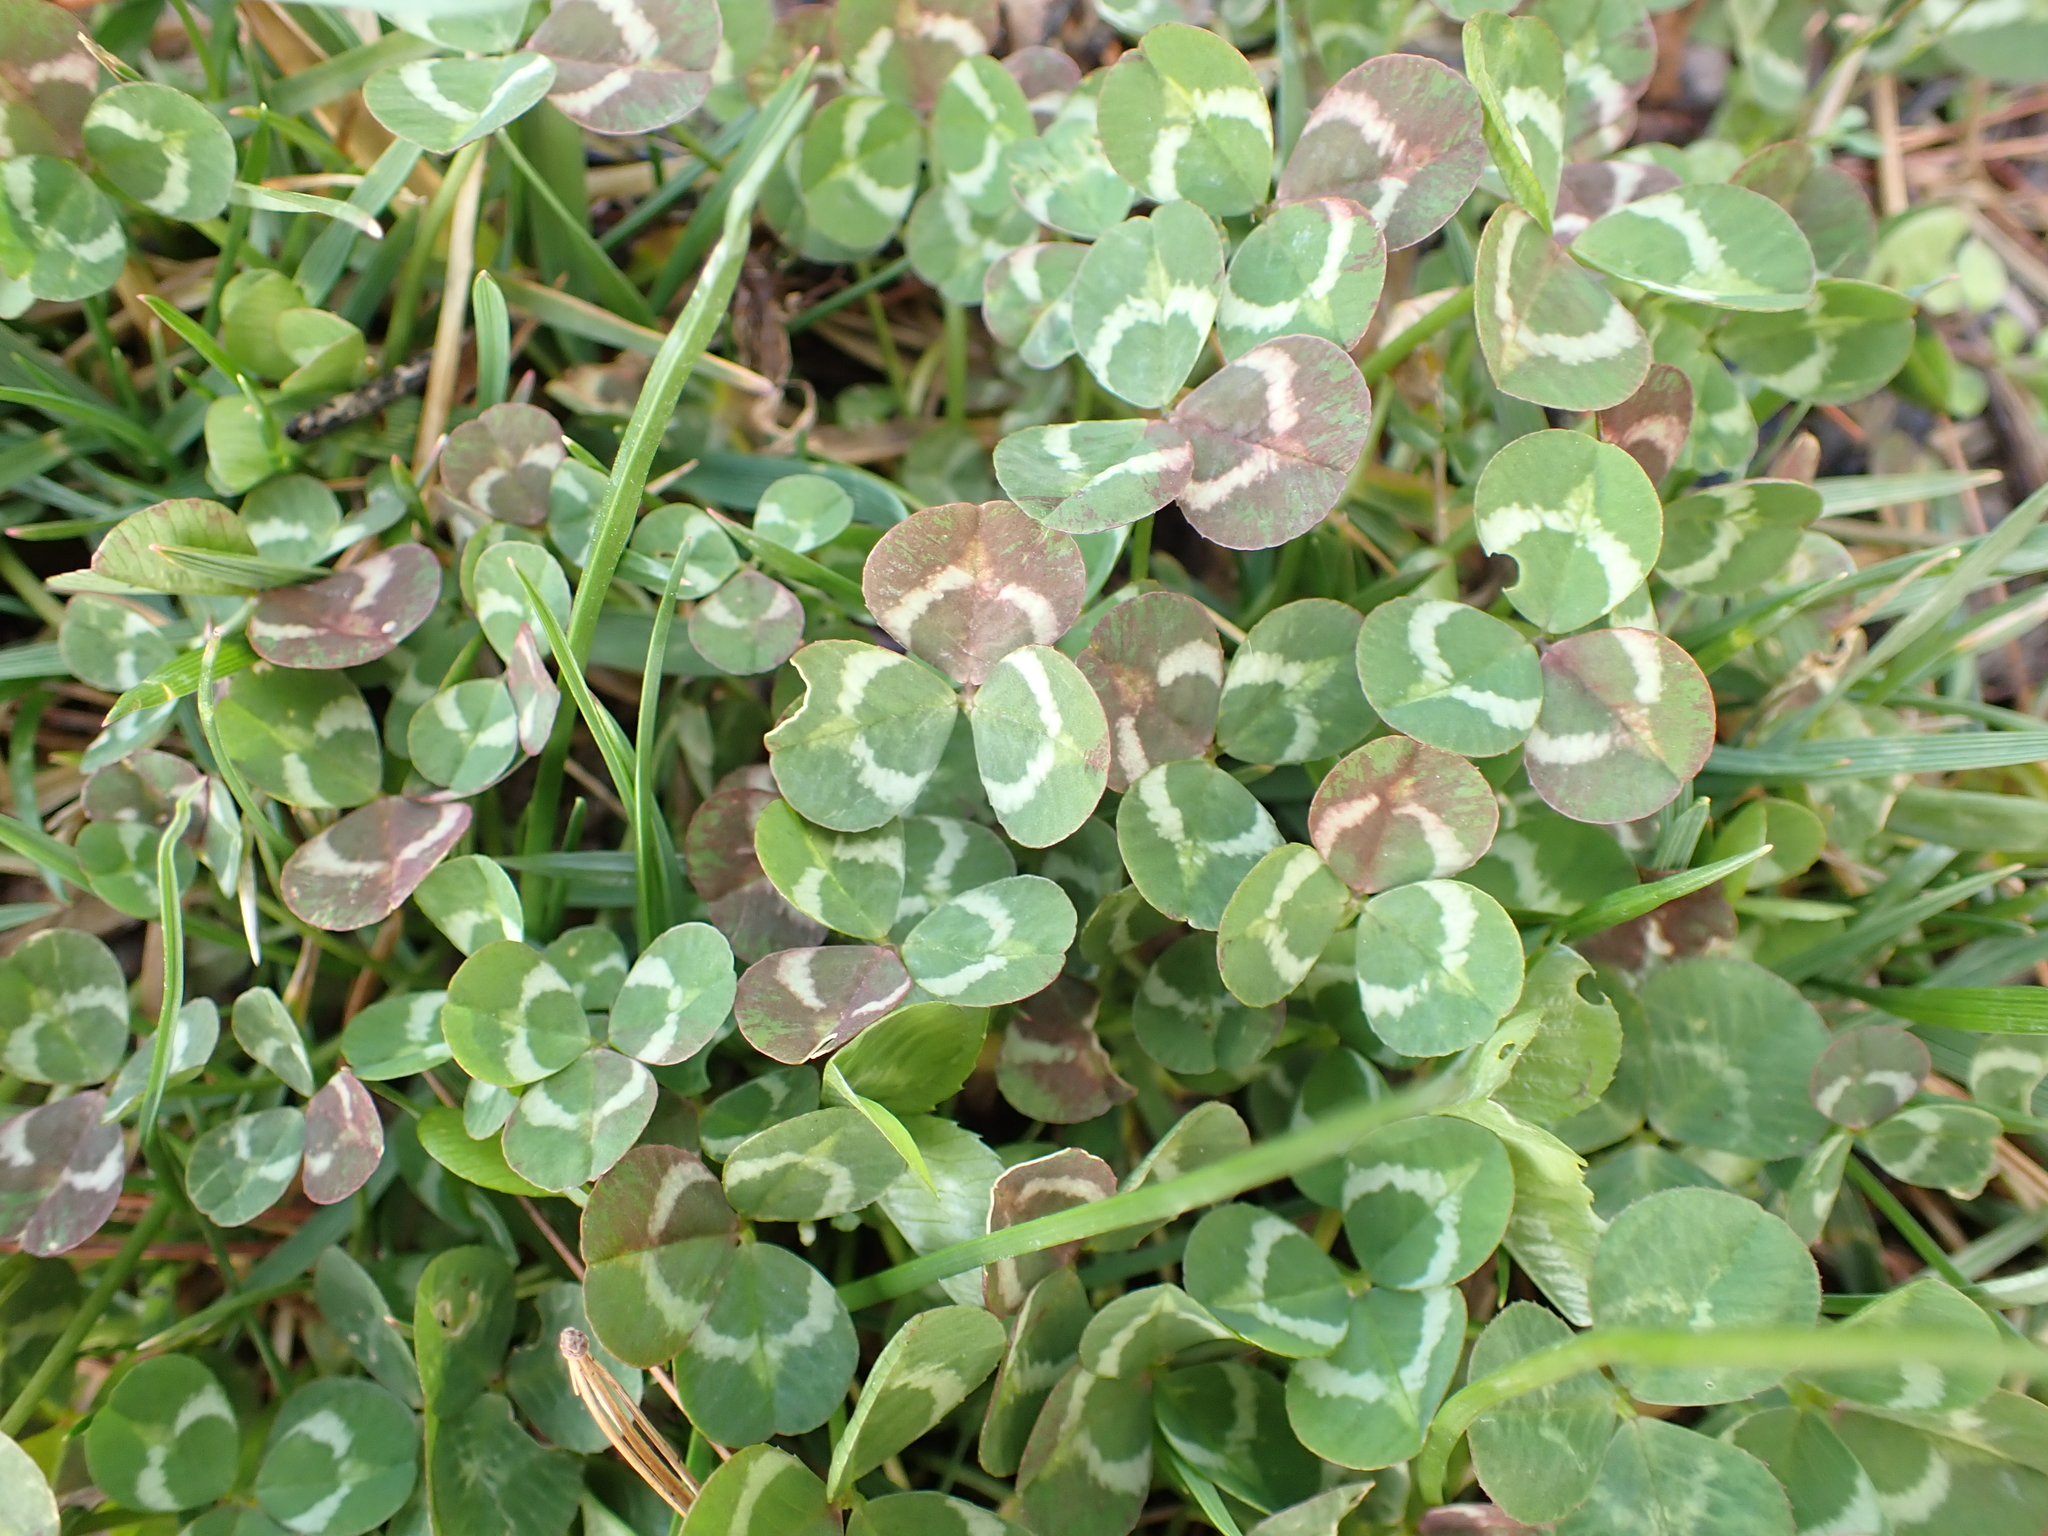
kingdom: Plantae
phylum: Tracheophyta
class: Magnoliopsida
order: Fabales
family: Fabaceae
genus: Trifolium
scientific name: Trifolium repens
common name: White clover
